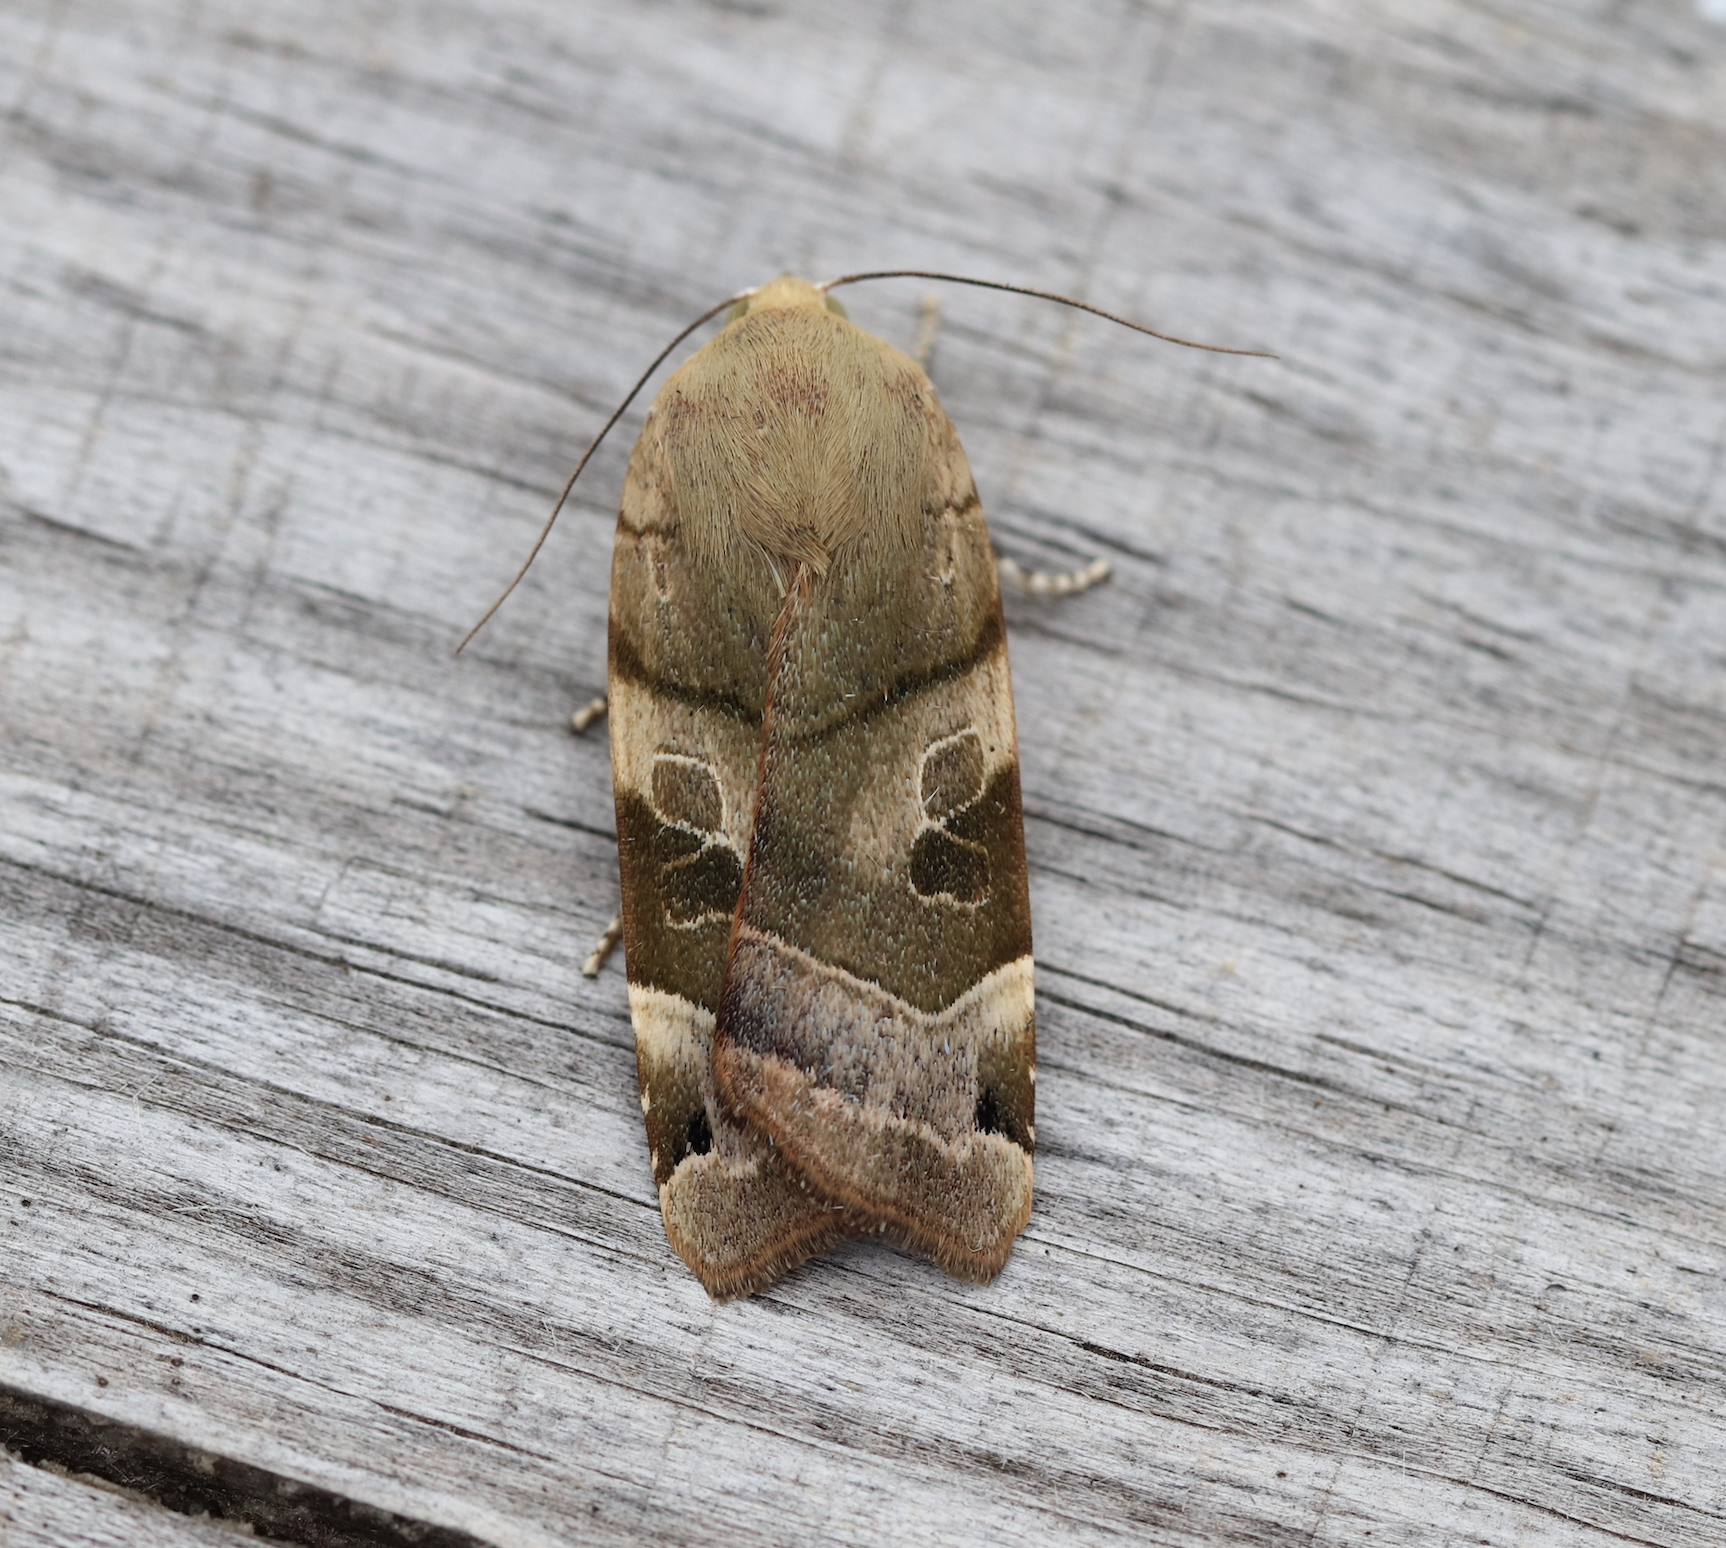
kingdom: Animalia
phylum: Arthropoda
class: Insecta
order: Lepidoptera
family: Noctuidae
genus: Noctua
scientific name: Noctua fimbriata
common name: Broad-bordered yellow underwing
